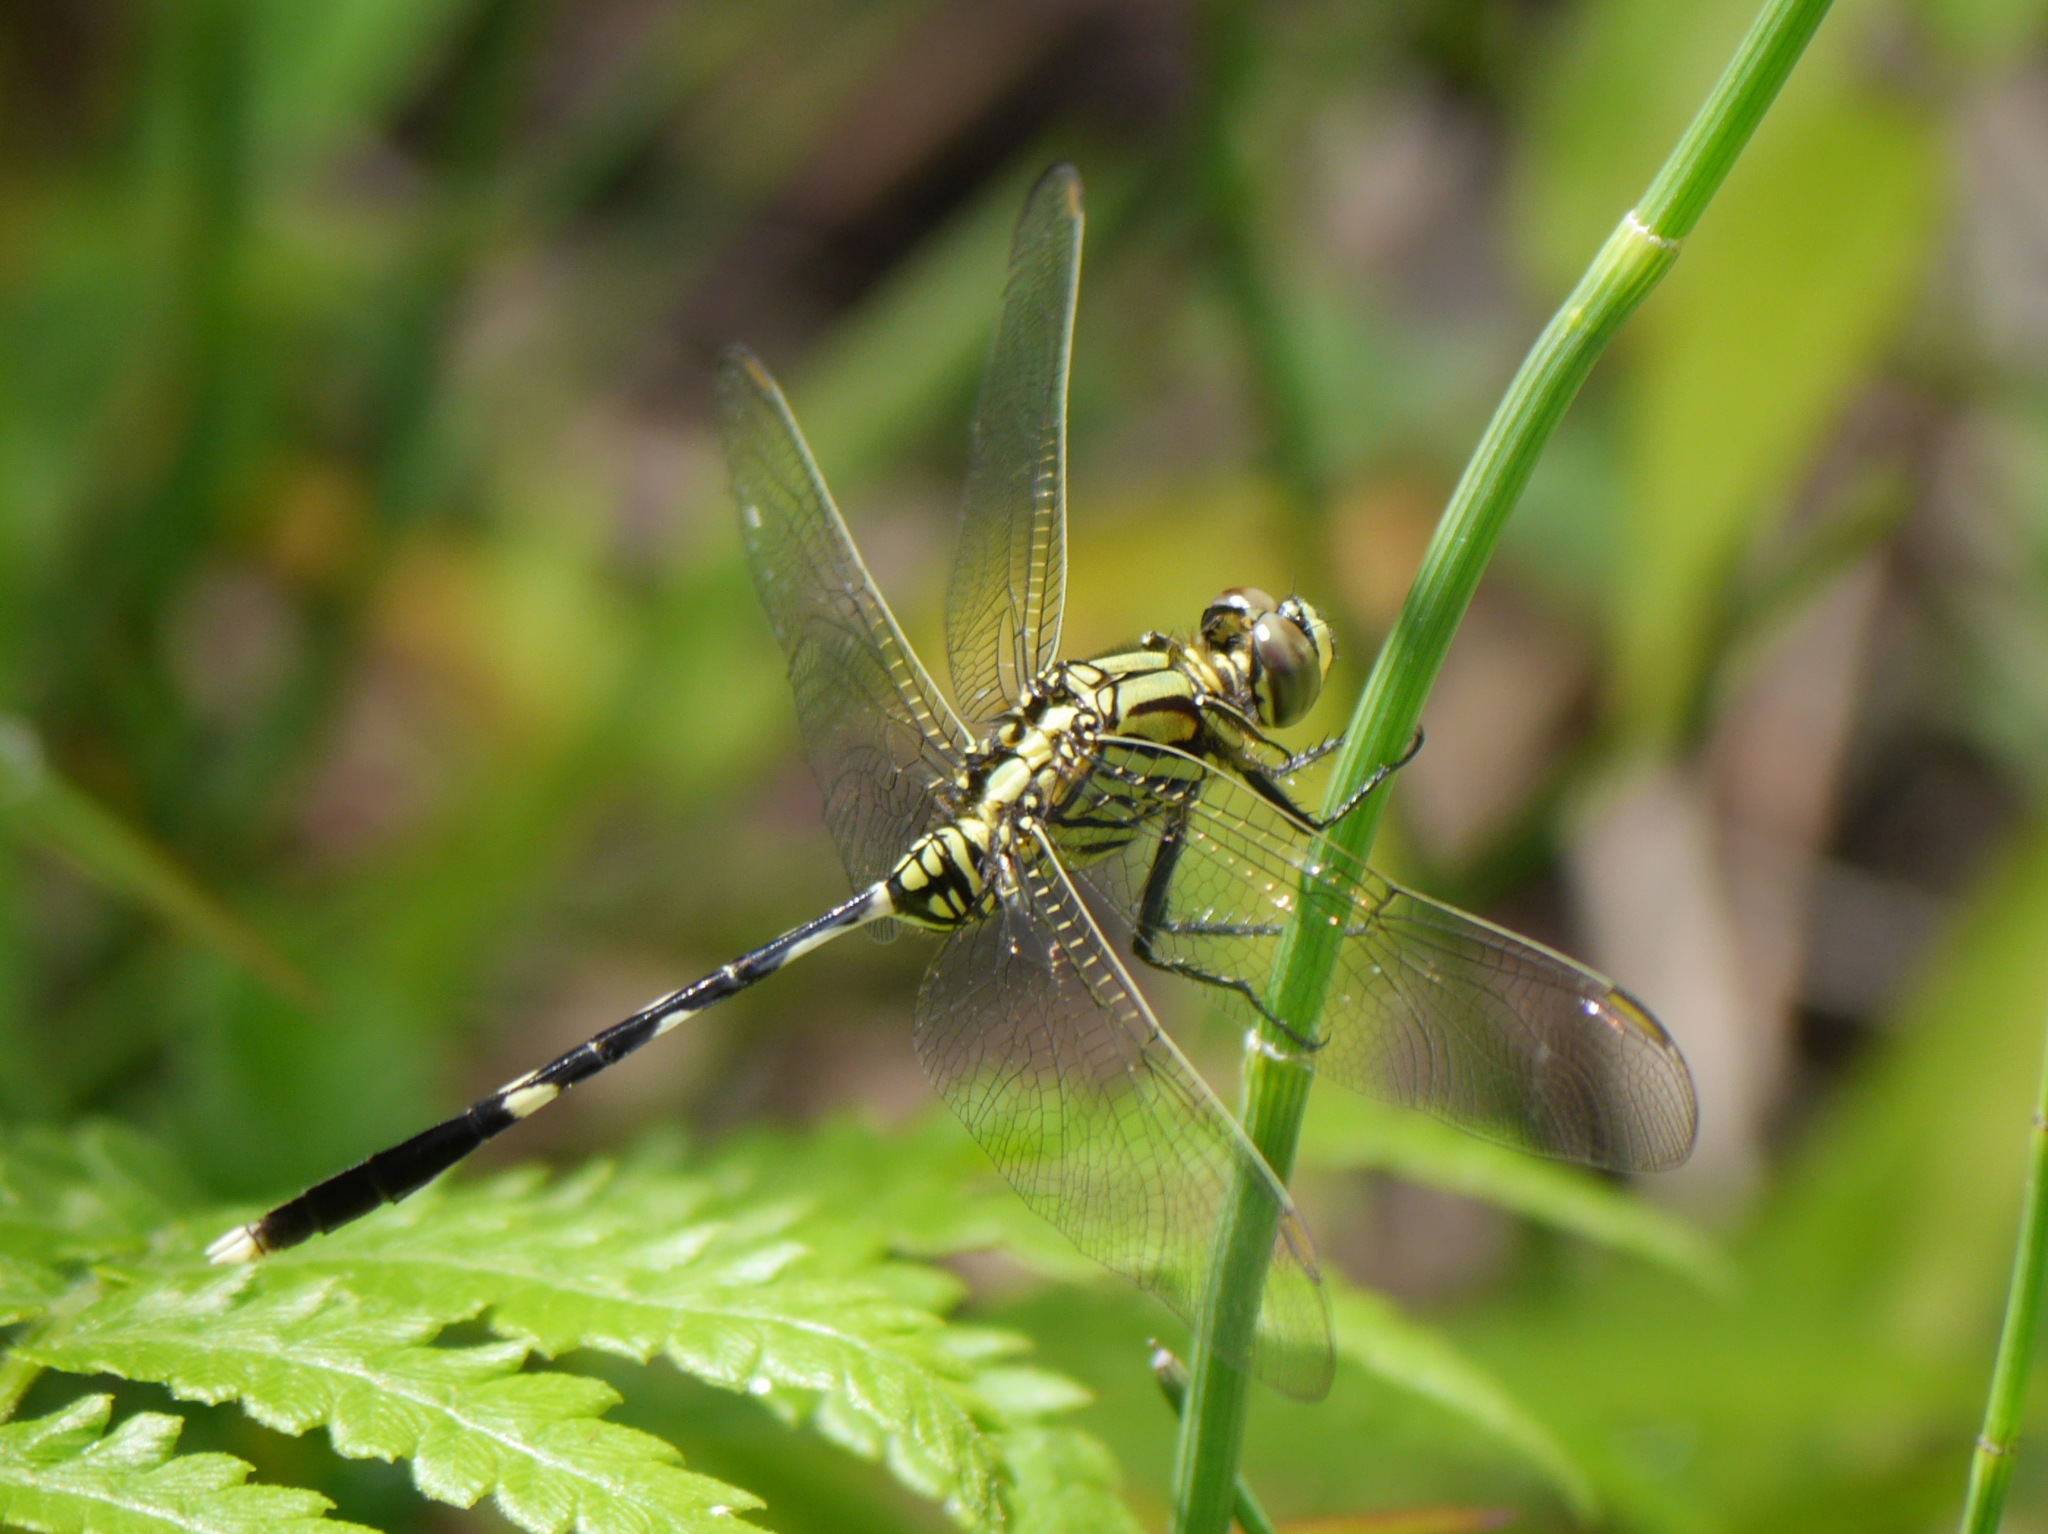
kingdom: Animalia
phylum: Arthropoda
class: Insecta
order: Odonata
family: Libellulidae
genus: Orthetrum
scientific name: Orthetrum sabina
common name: Slender skimmer
